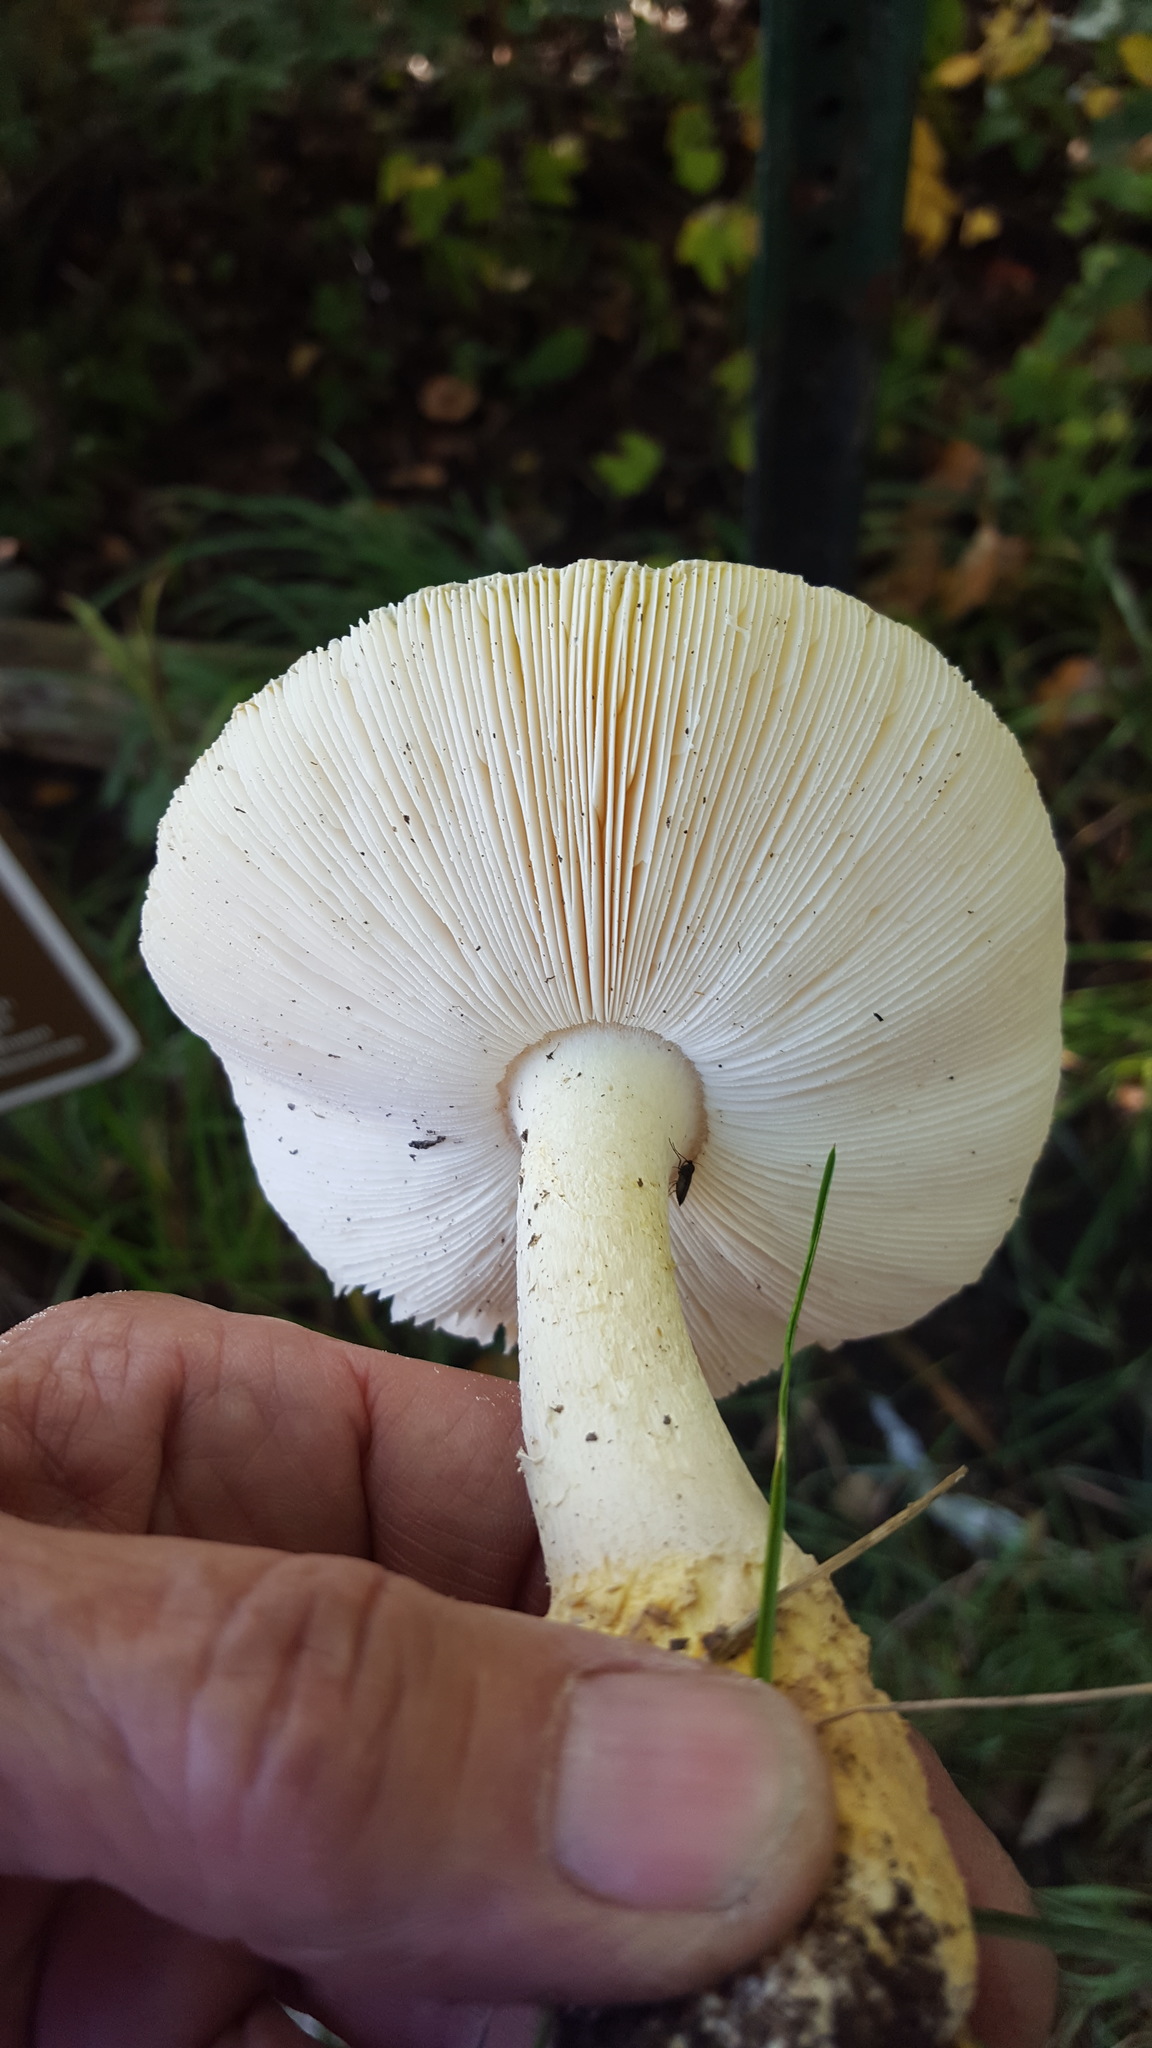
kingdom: Fungi
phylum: Basidiomycota
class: Agaricomycetes
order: Agaricales
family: Amanitaceae
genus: Amanita
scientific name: Amanita muscaria
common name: Fly agaric
